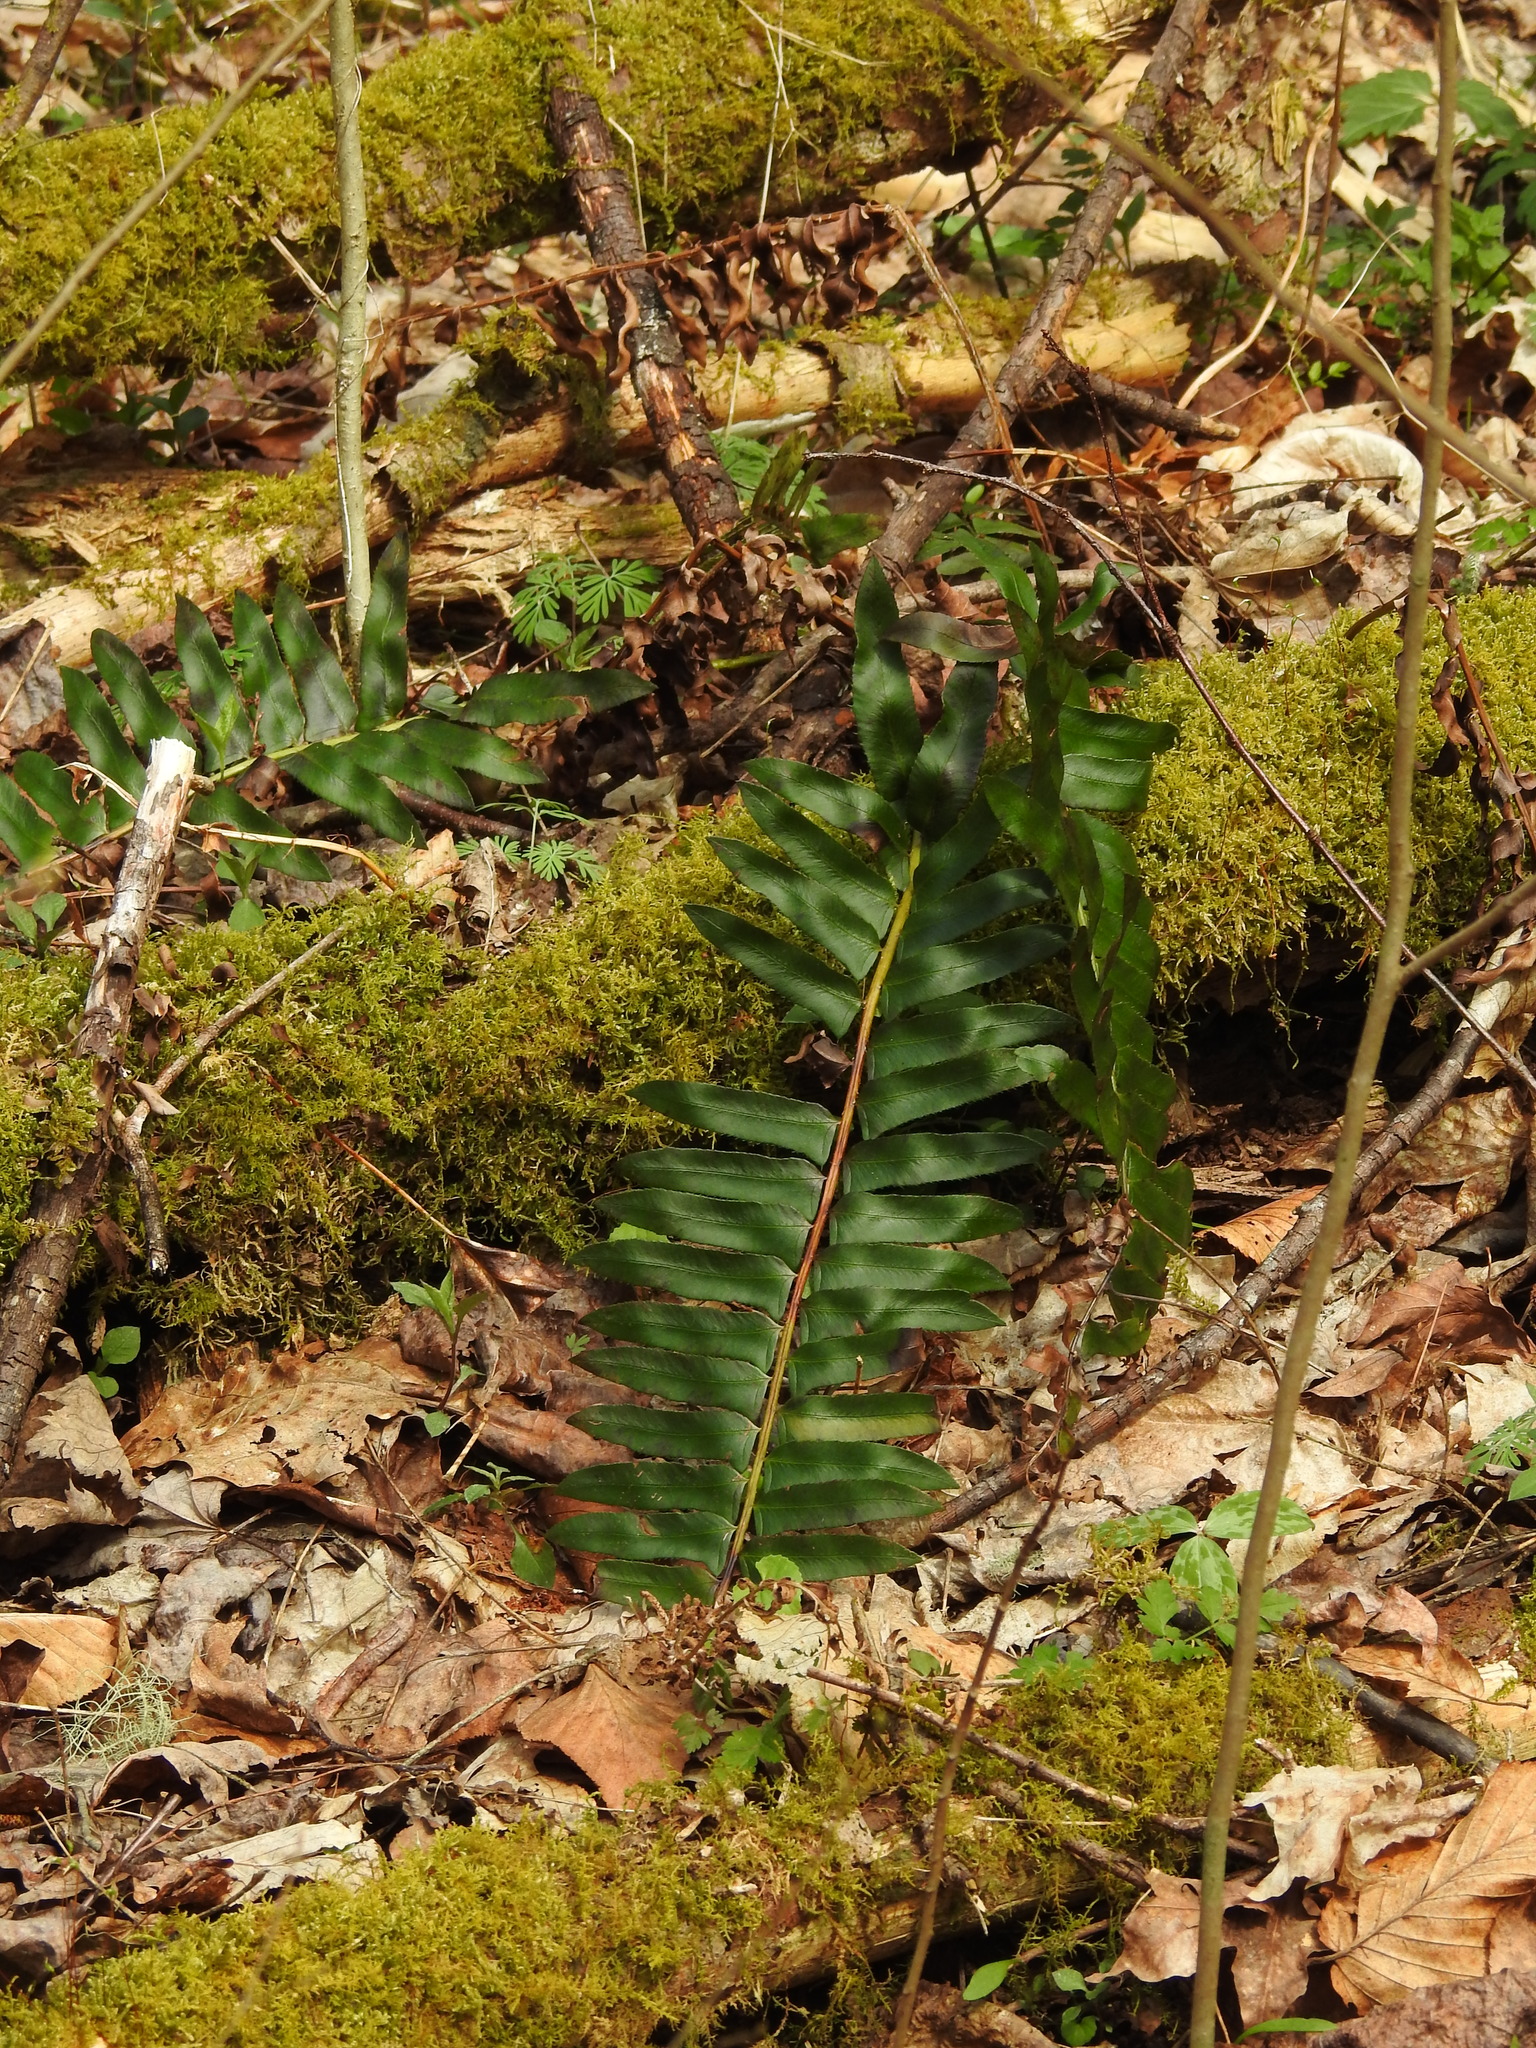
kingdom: Plantae
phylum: Tracheophyta
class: Polypodiopsida
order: Polypodiales
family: Dryopteridaceae
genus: Polystichum
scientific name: Polystichum acrostichoides
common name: Christmas fern
